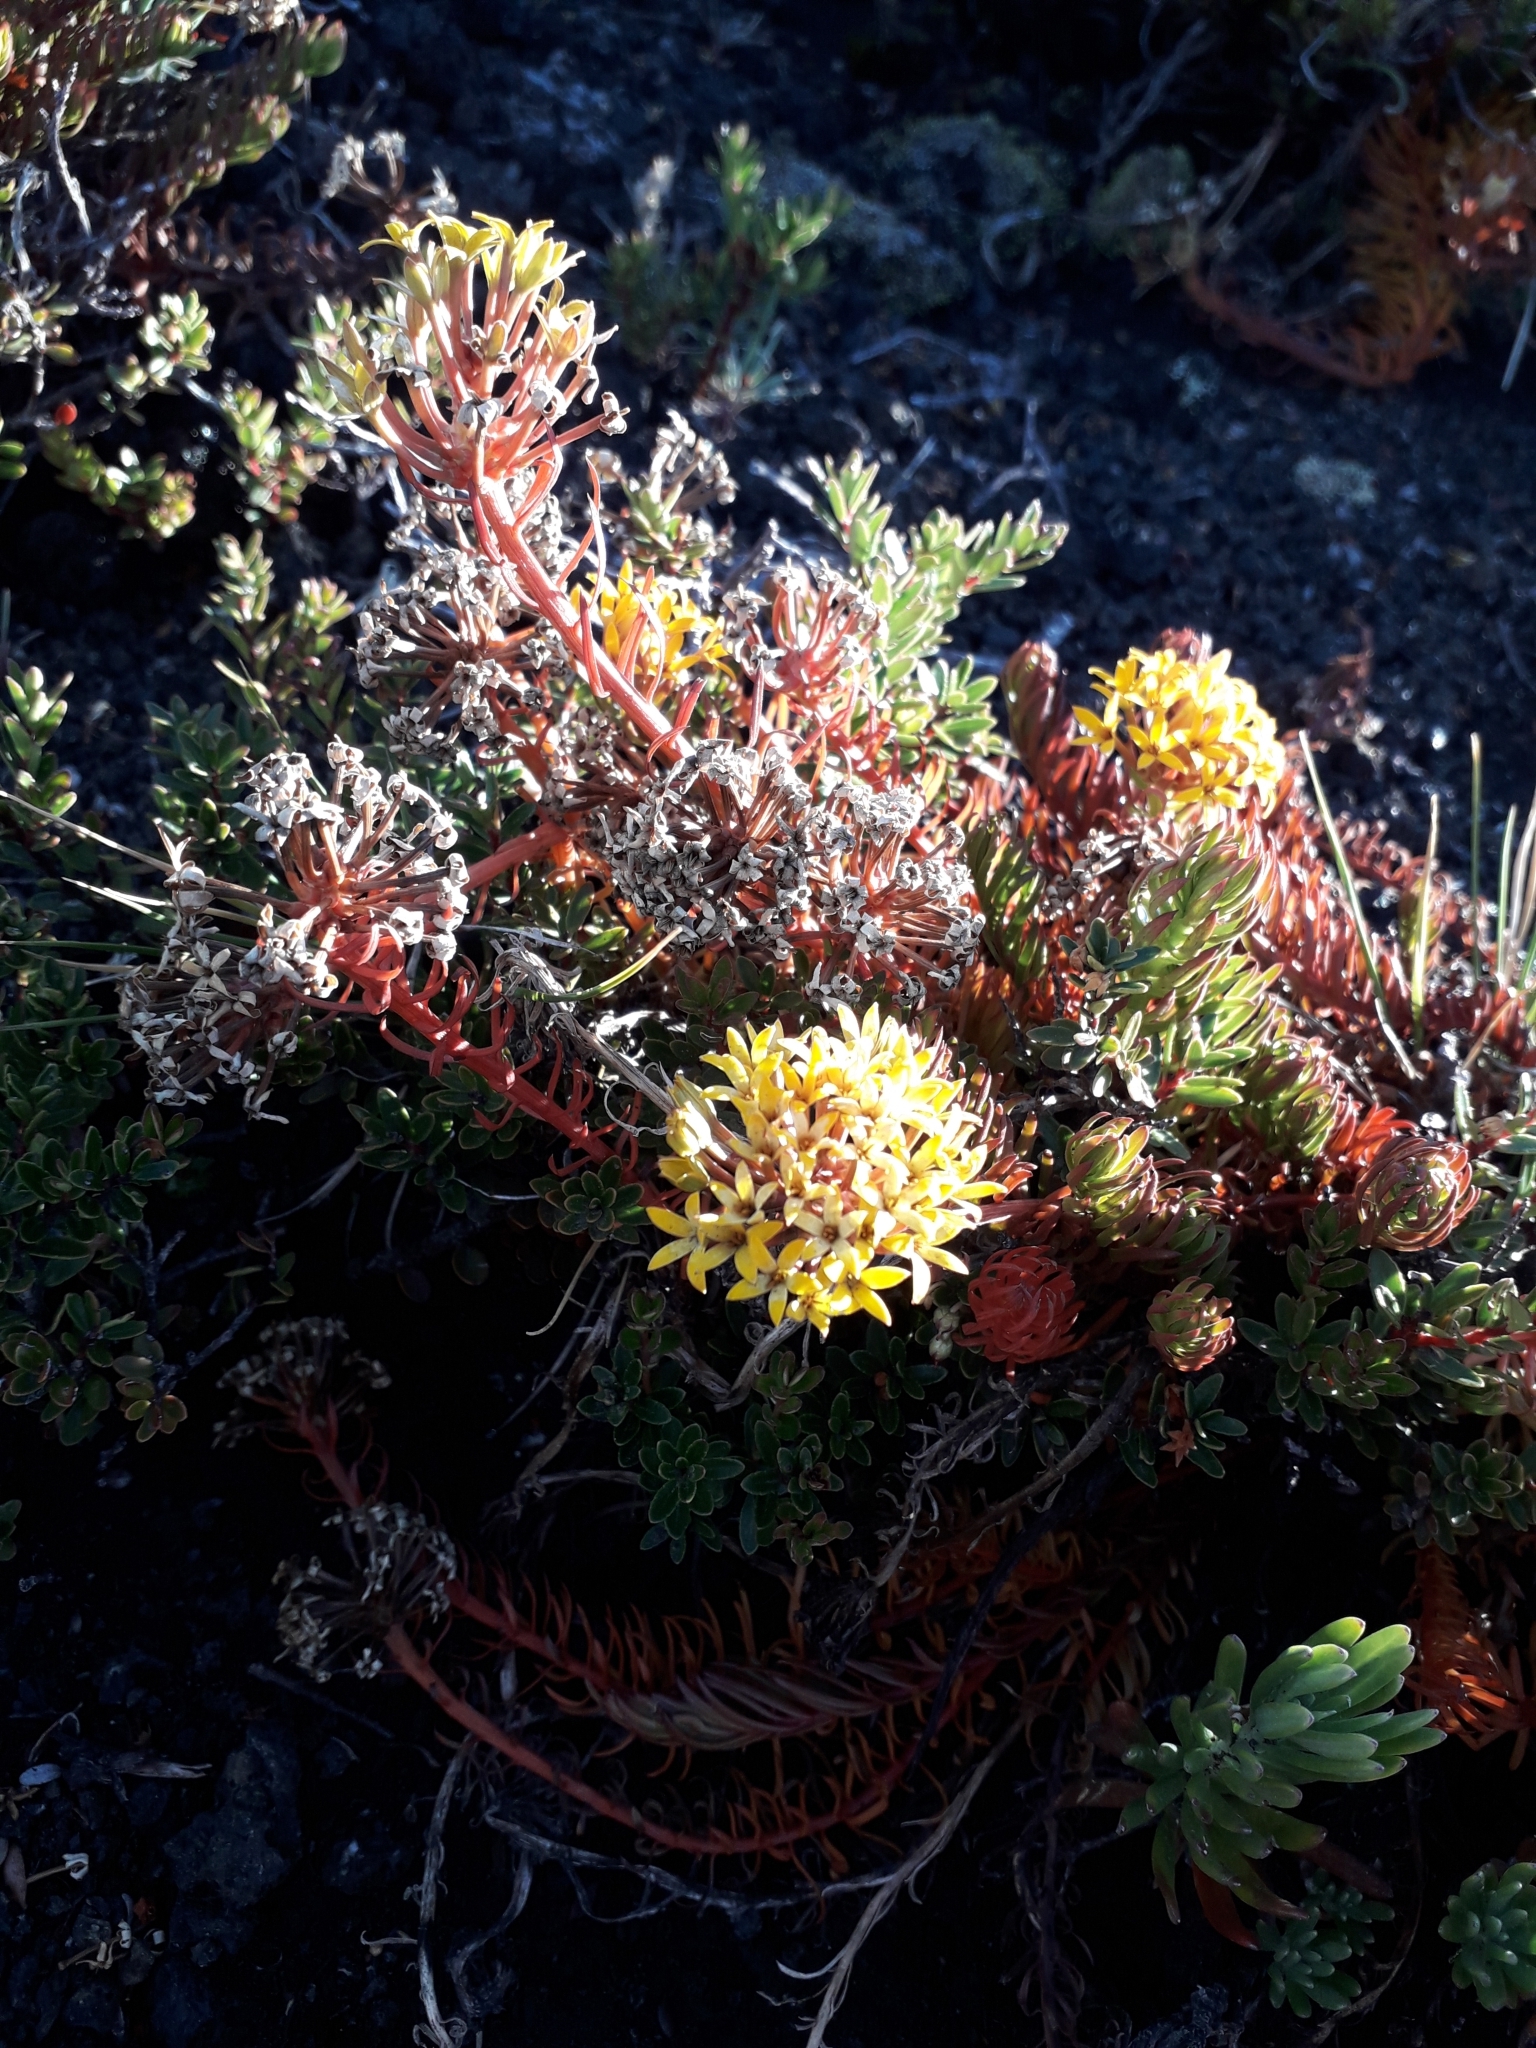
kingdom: Plantae
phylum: Tracheophyta
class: Magnoliopsida
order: Santalales
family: Schoepfiaceae
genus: Quinchamalium
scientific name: Quinchamalium chilense
